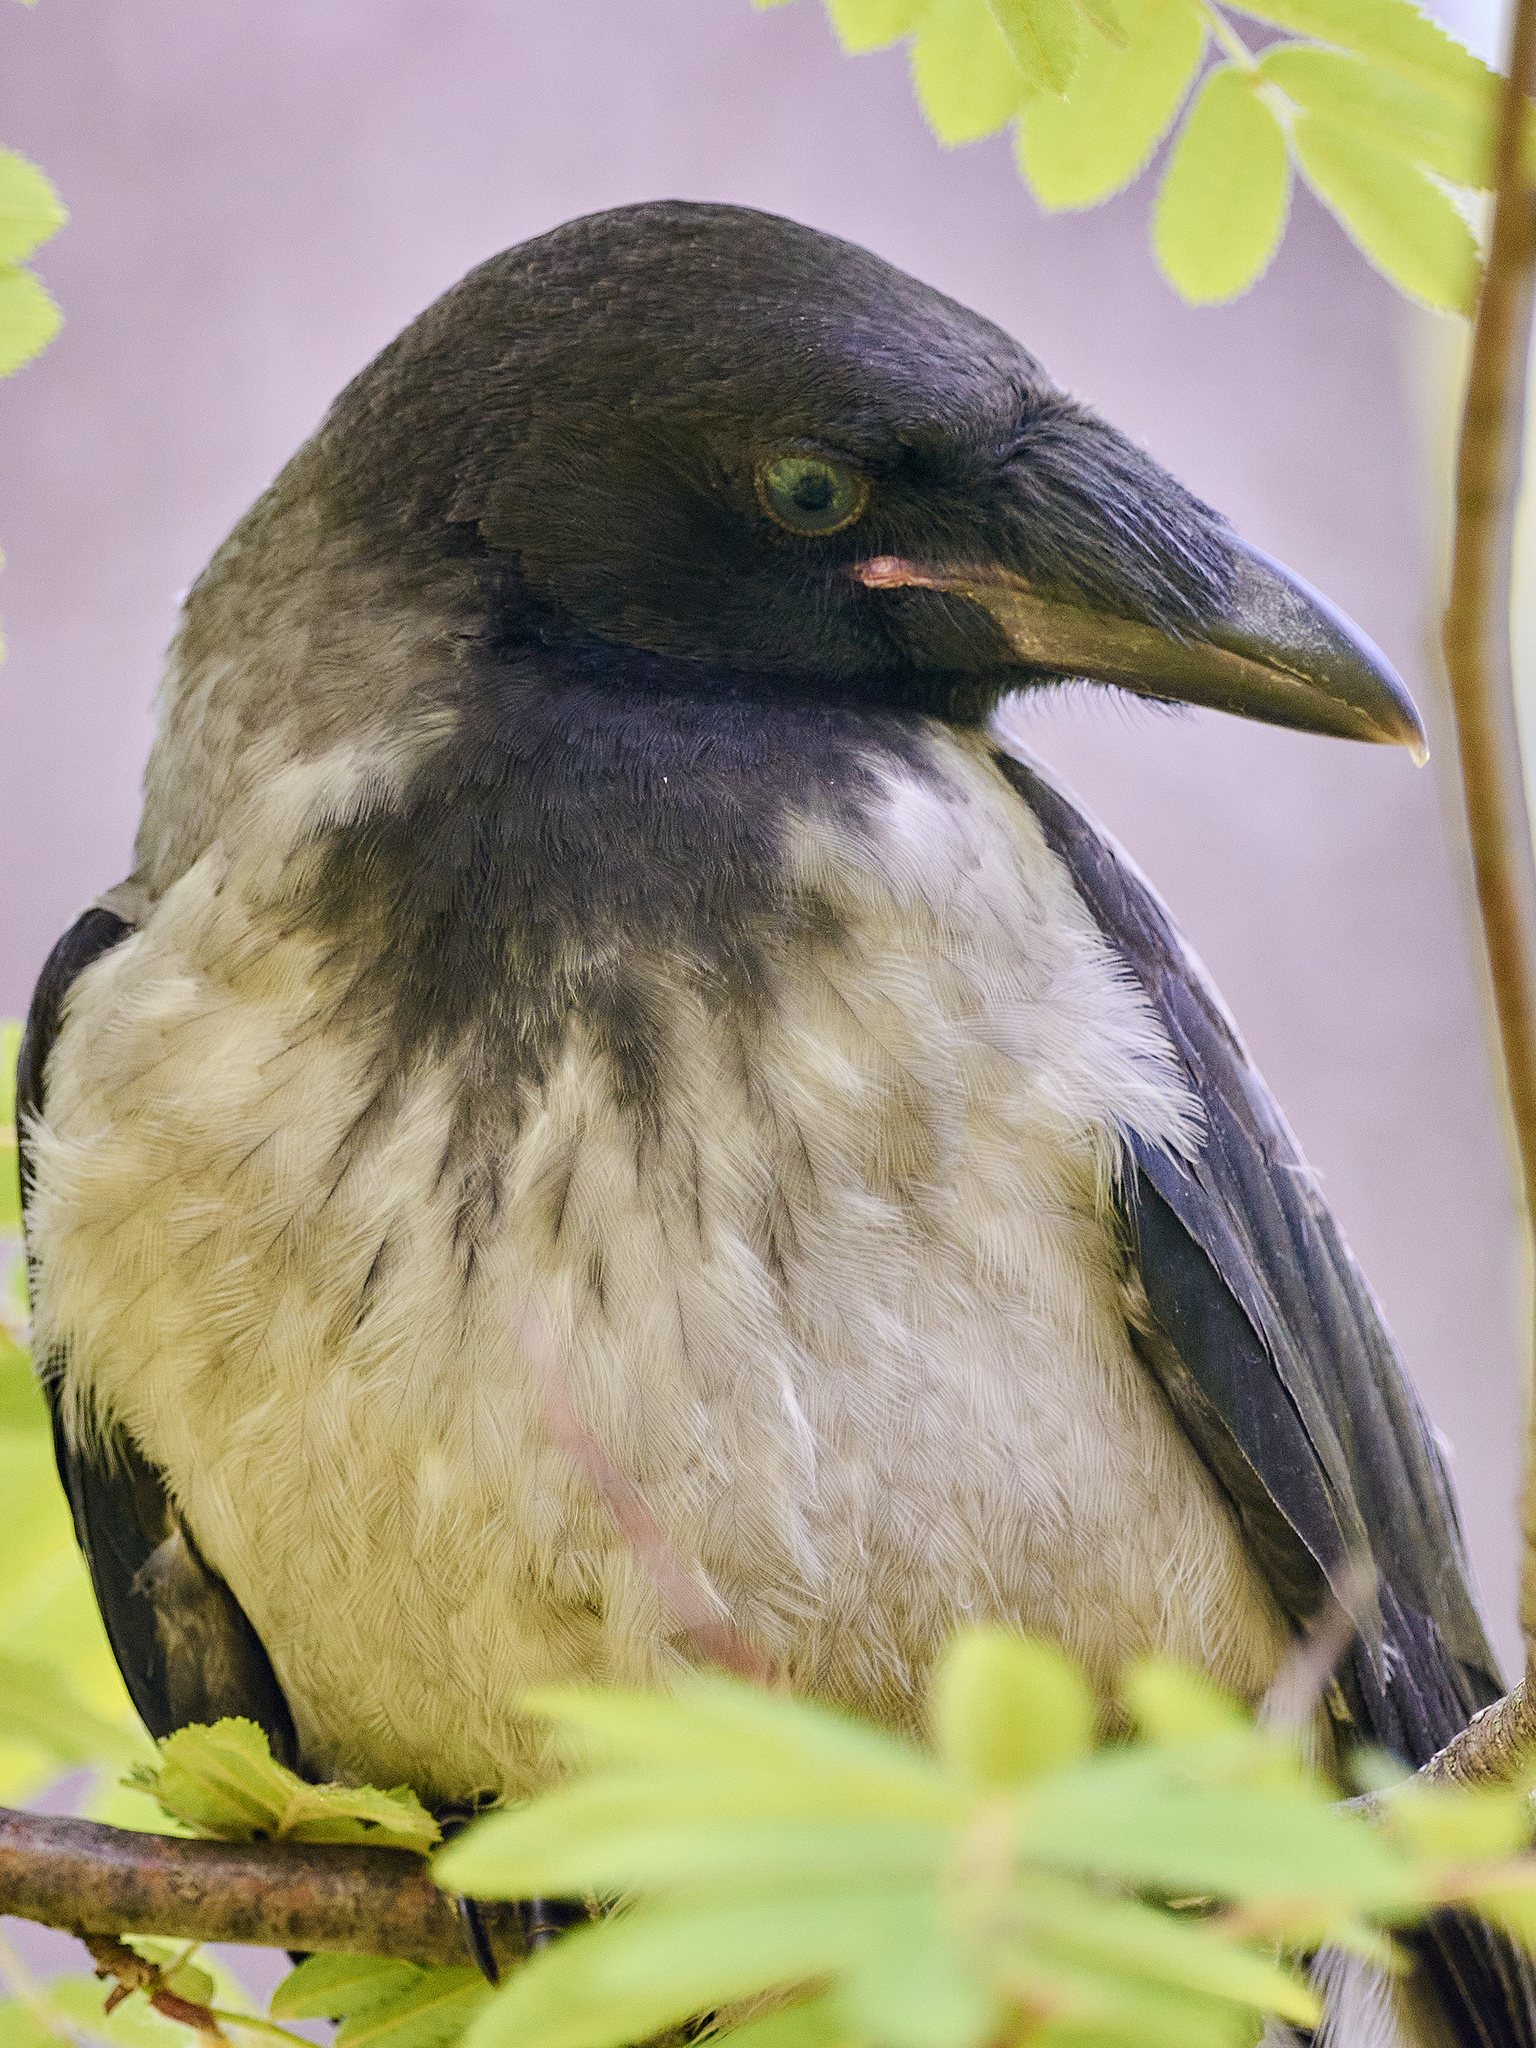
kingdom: Animalia
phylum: Chordata
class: Aves
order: Passeriformes
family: Corvidae
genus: Corvus
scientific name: Corvus cornix
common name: Hooded crow
